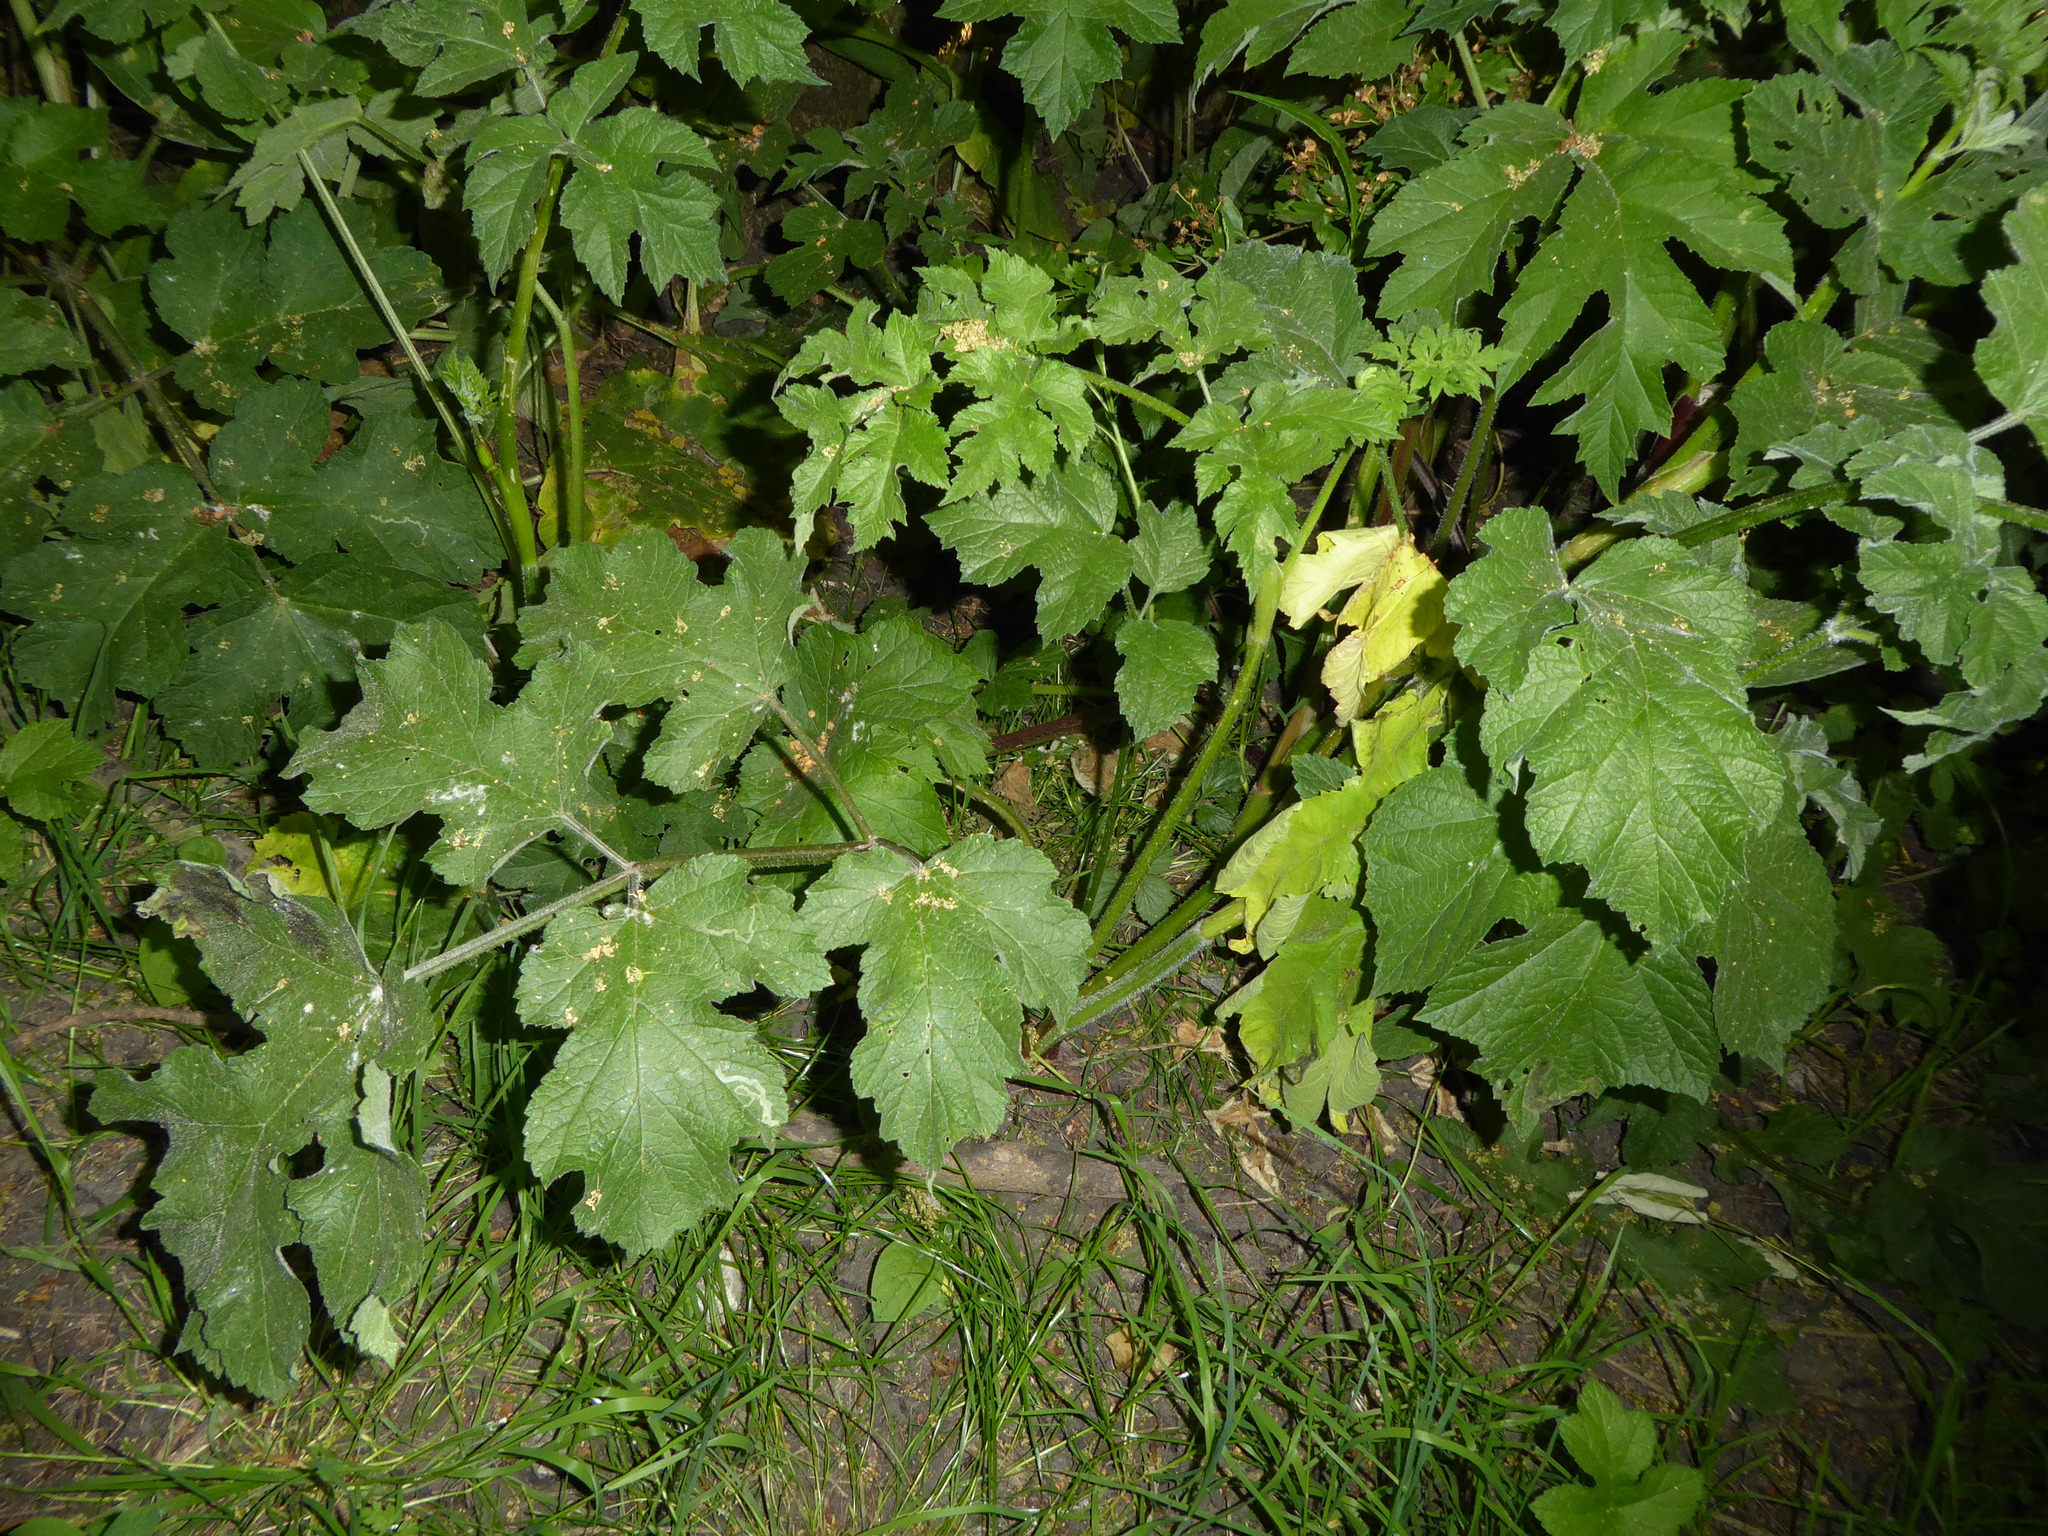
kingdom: Plantae
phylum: Tracheophyta
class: Magnoliopsida
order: Apiales
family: Apiaceae
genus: Heracleum
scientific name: Heracleum sphondylium
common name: Hogweed
